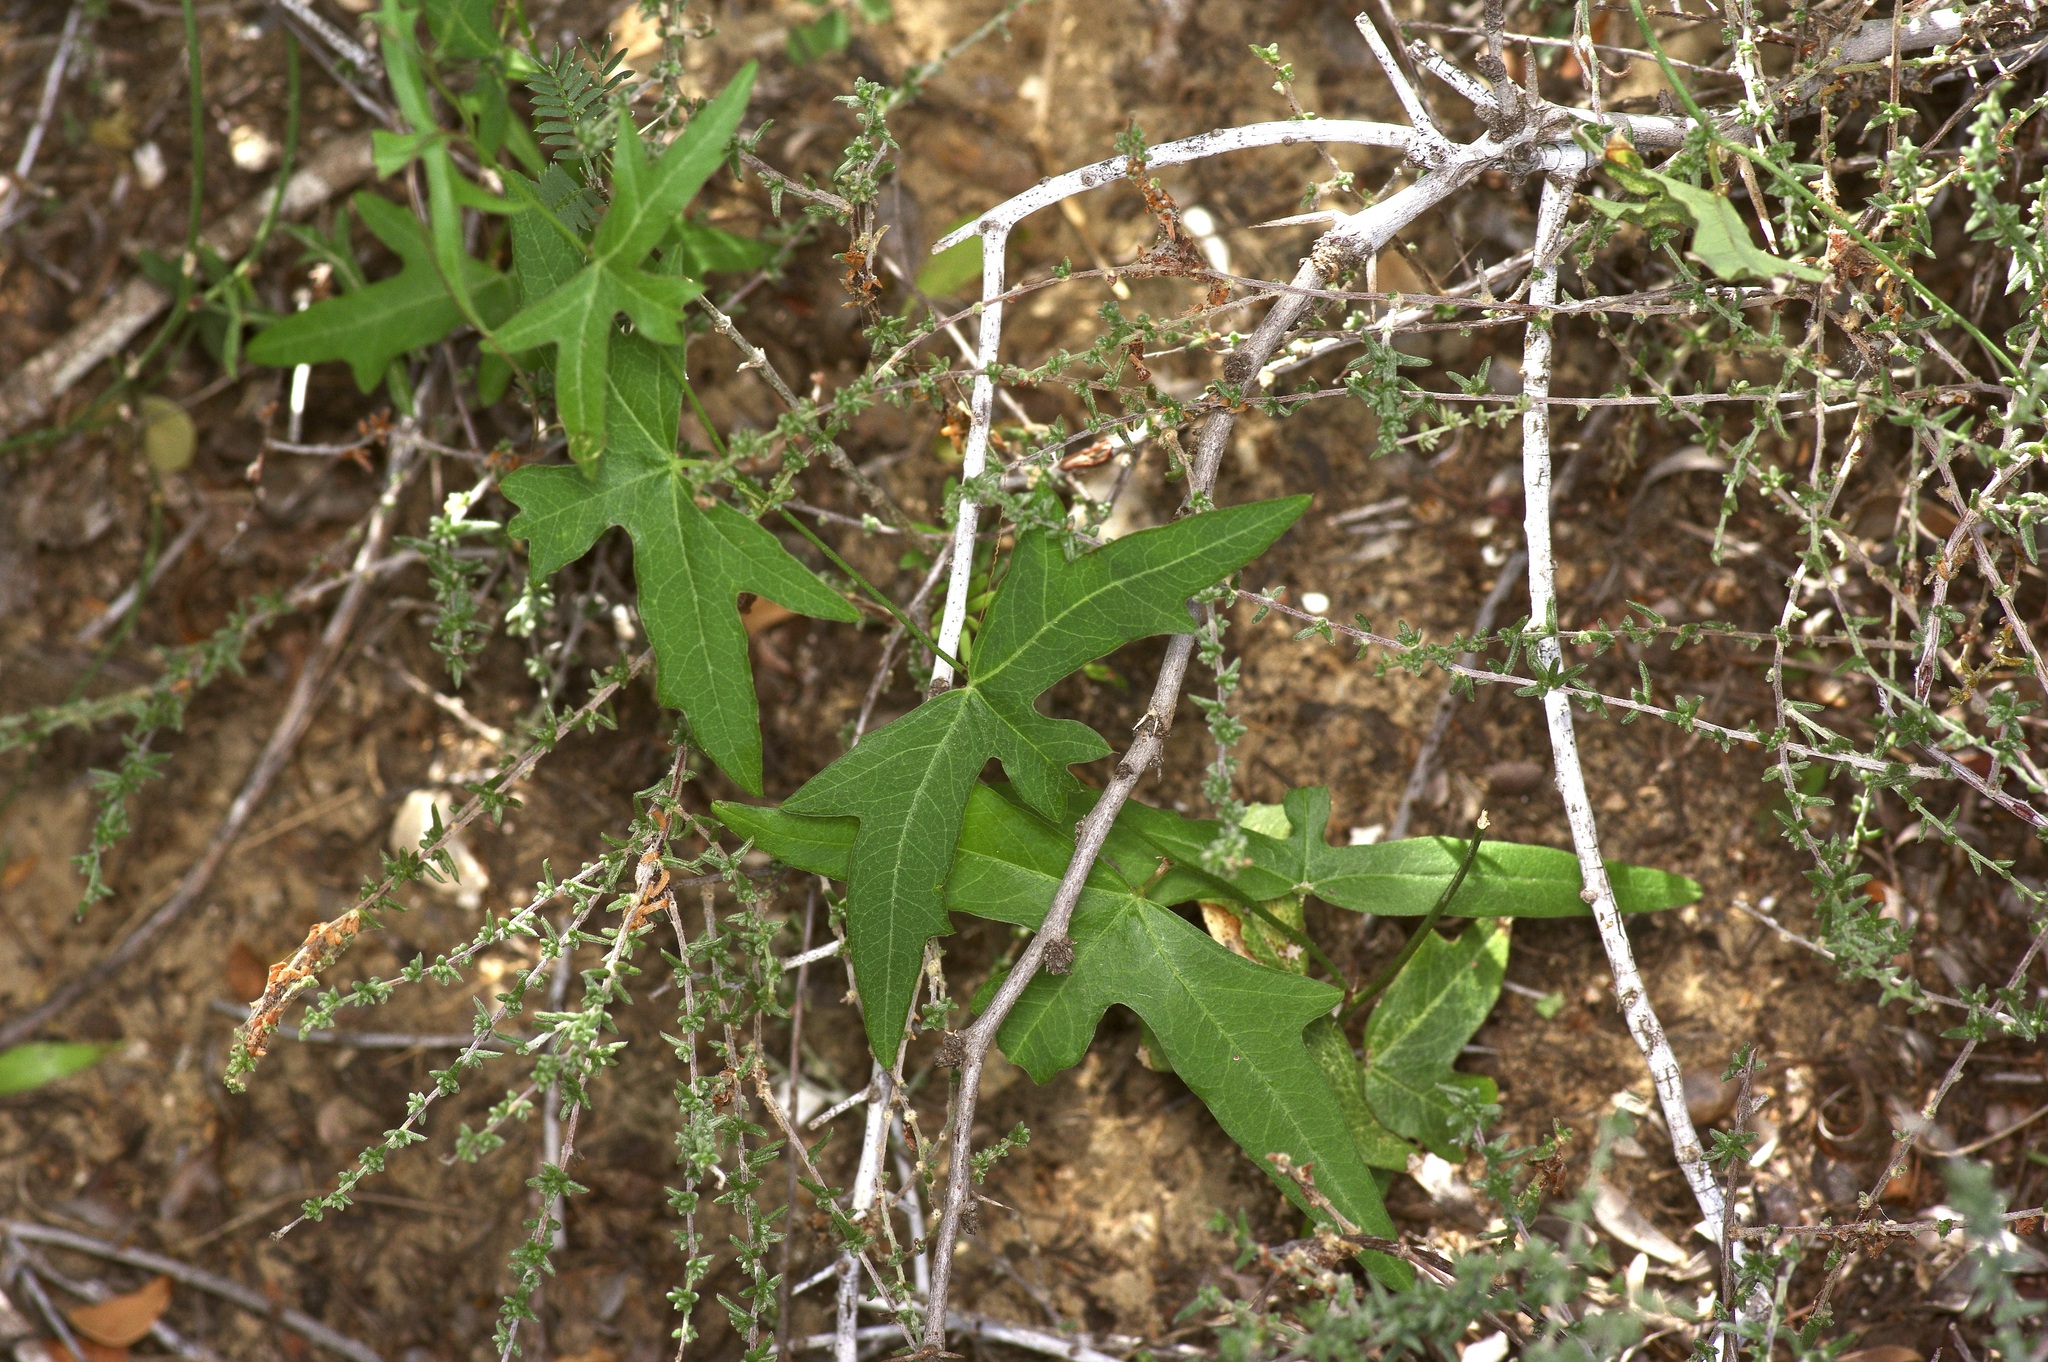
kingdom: Plantae
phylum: Tracheophyta
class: Magnoliopsida
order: Malpighiales
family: Passifloraceae
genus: Passiflora
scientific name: Passiflora tenuiloba
